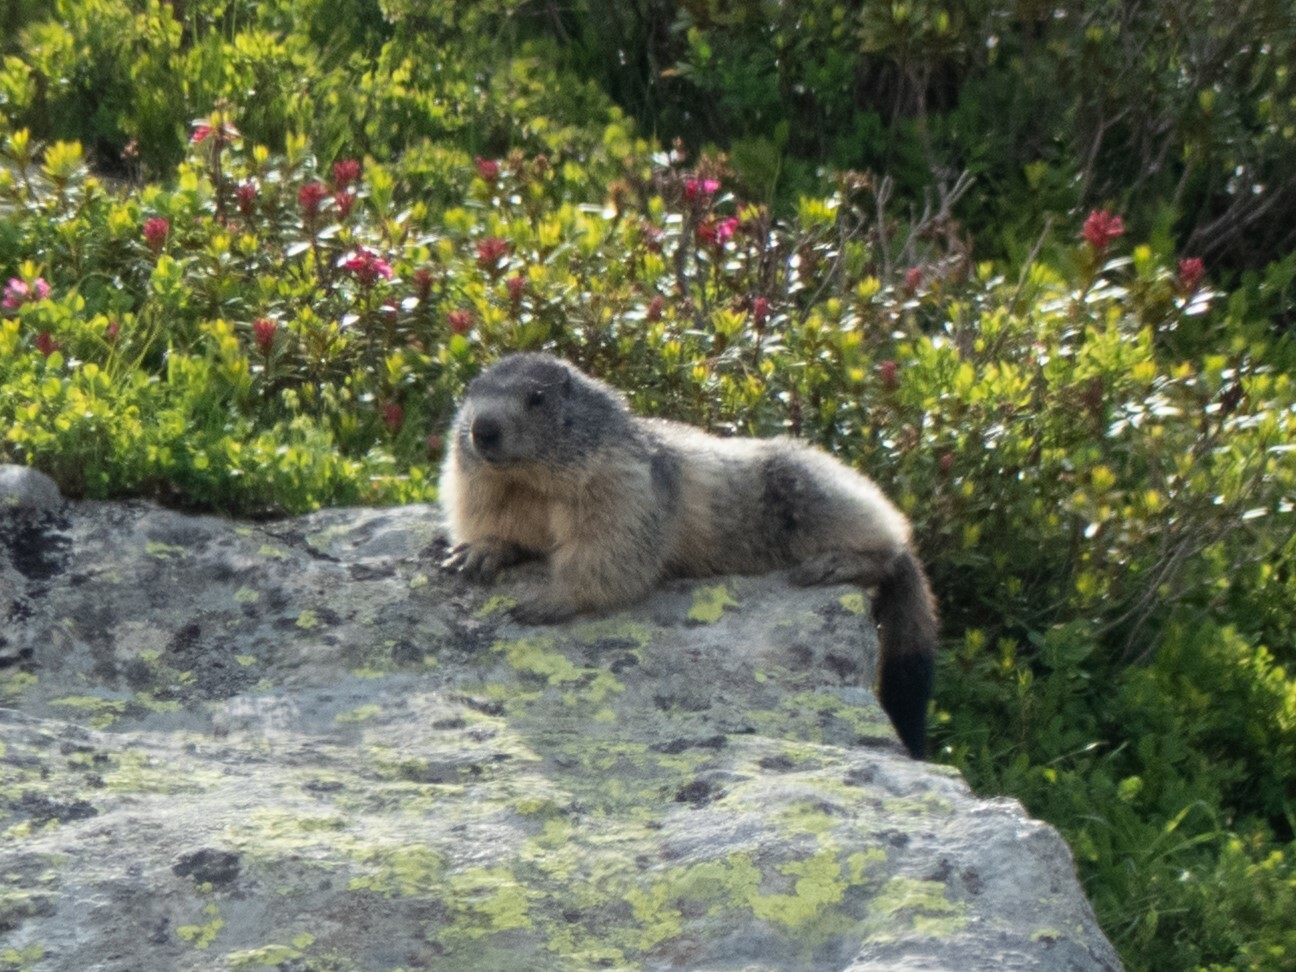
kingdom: Animalia
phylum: Chordata
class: Mammalia
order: Rodentia
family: Sciuridae
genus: Marmota
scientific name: Marmota marmota
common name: Alpine marmot
